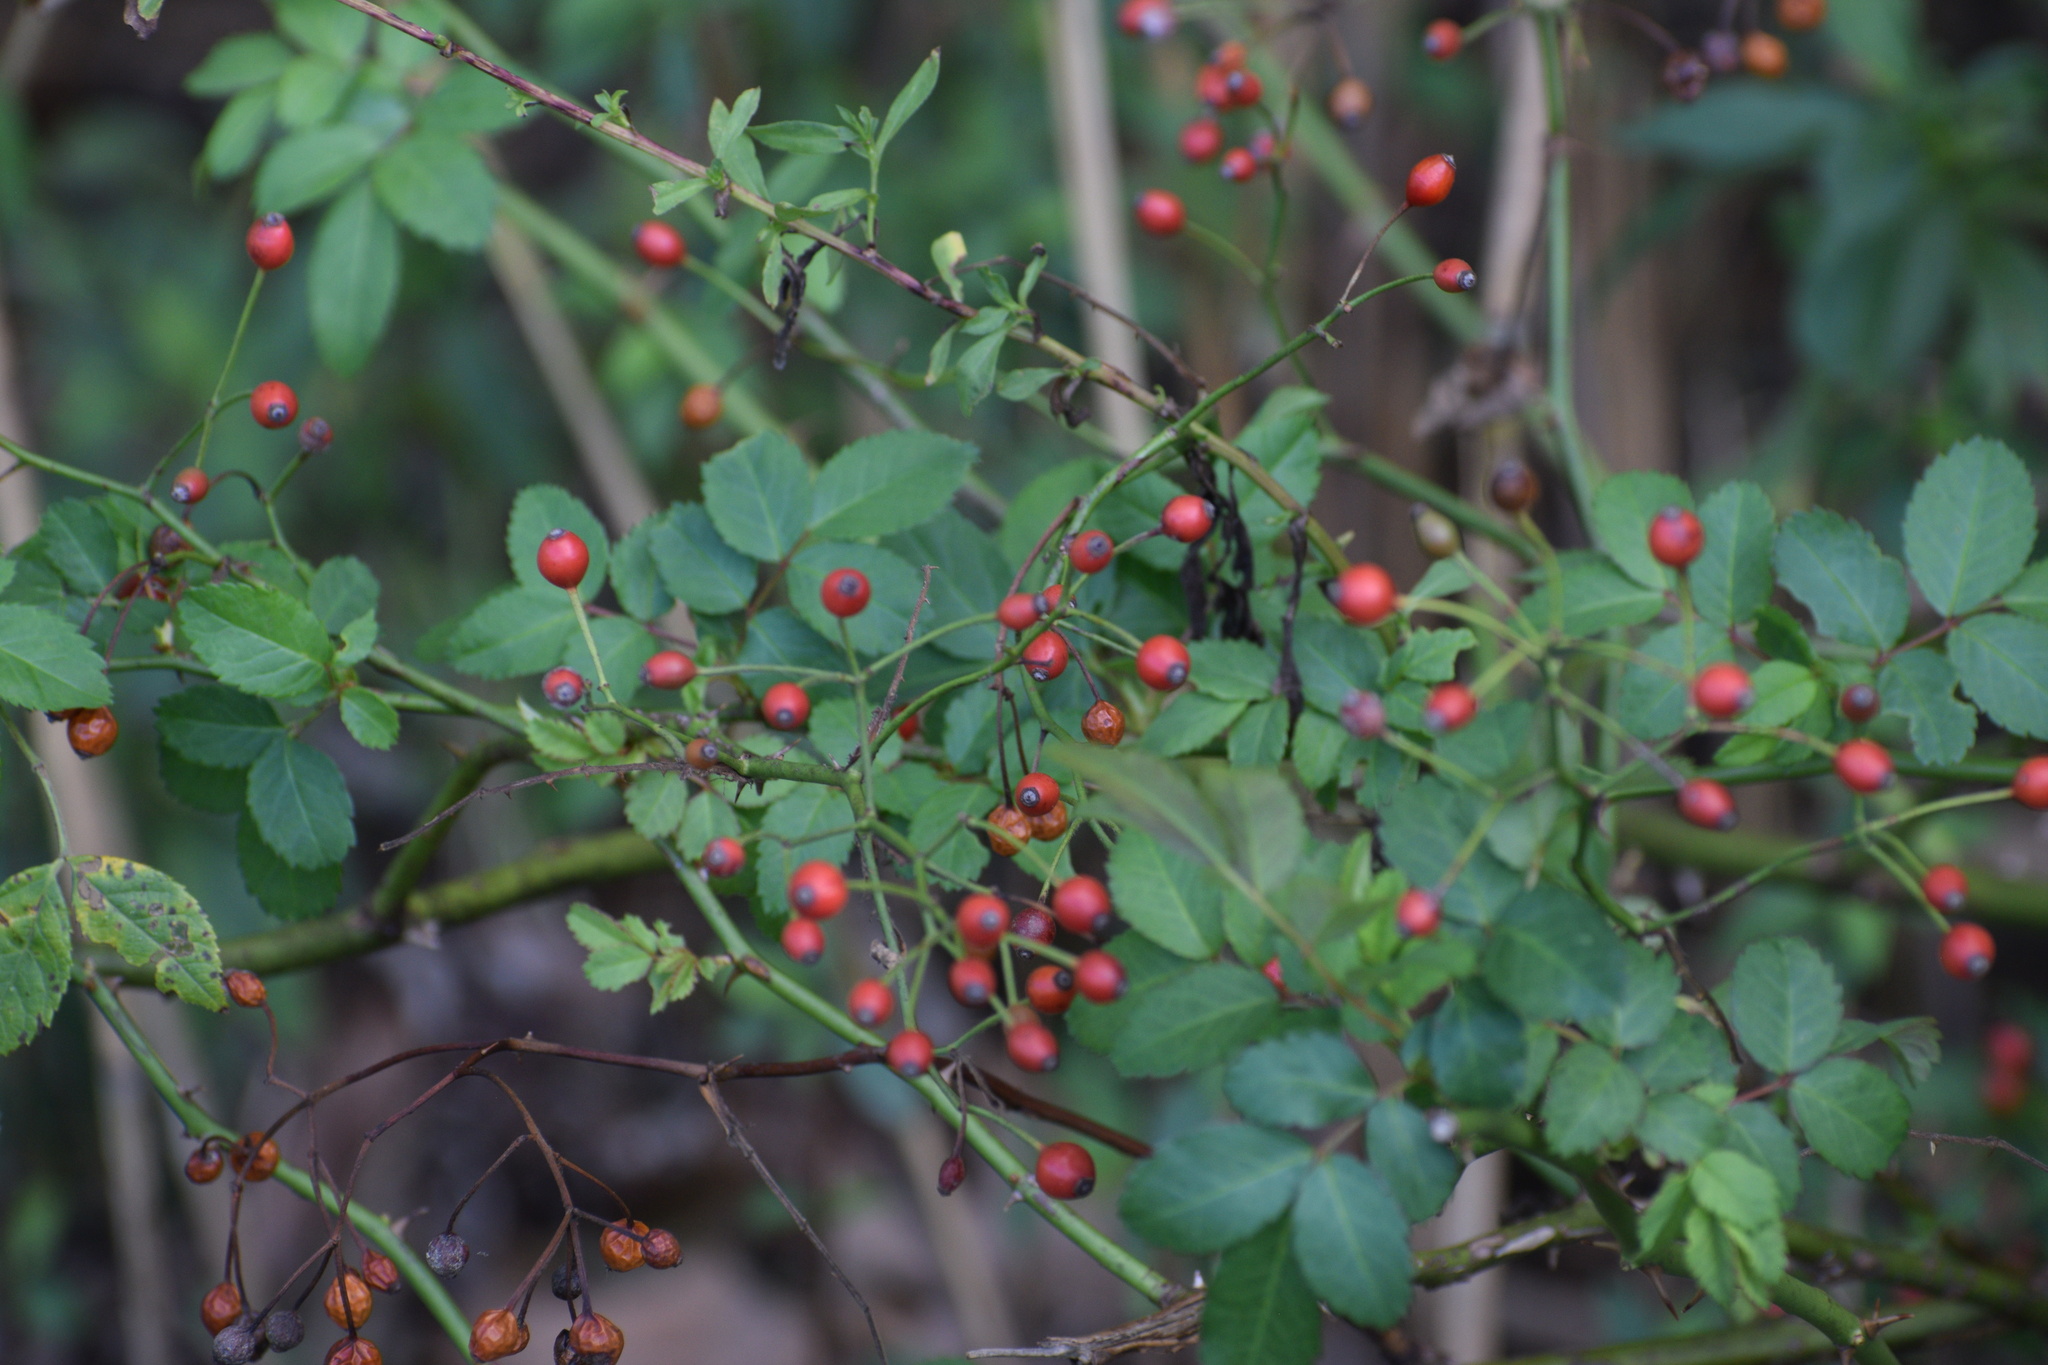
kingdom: Plantae
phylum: Tracheophyta
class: Magnoliopsida
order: Rosales
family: Rosaceae
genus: Rosa
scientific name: Rosa multiflora
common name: Multiflora rose
